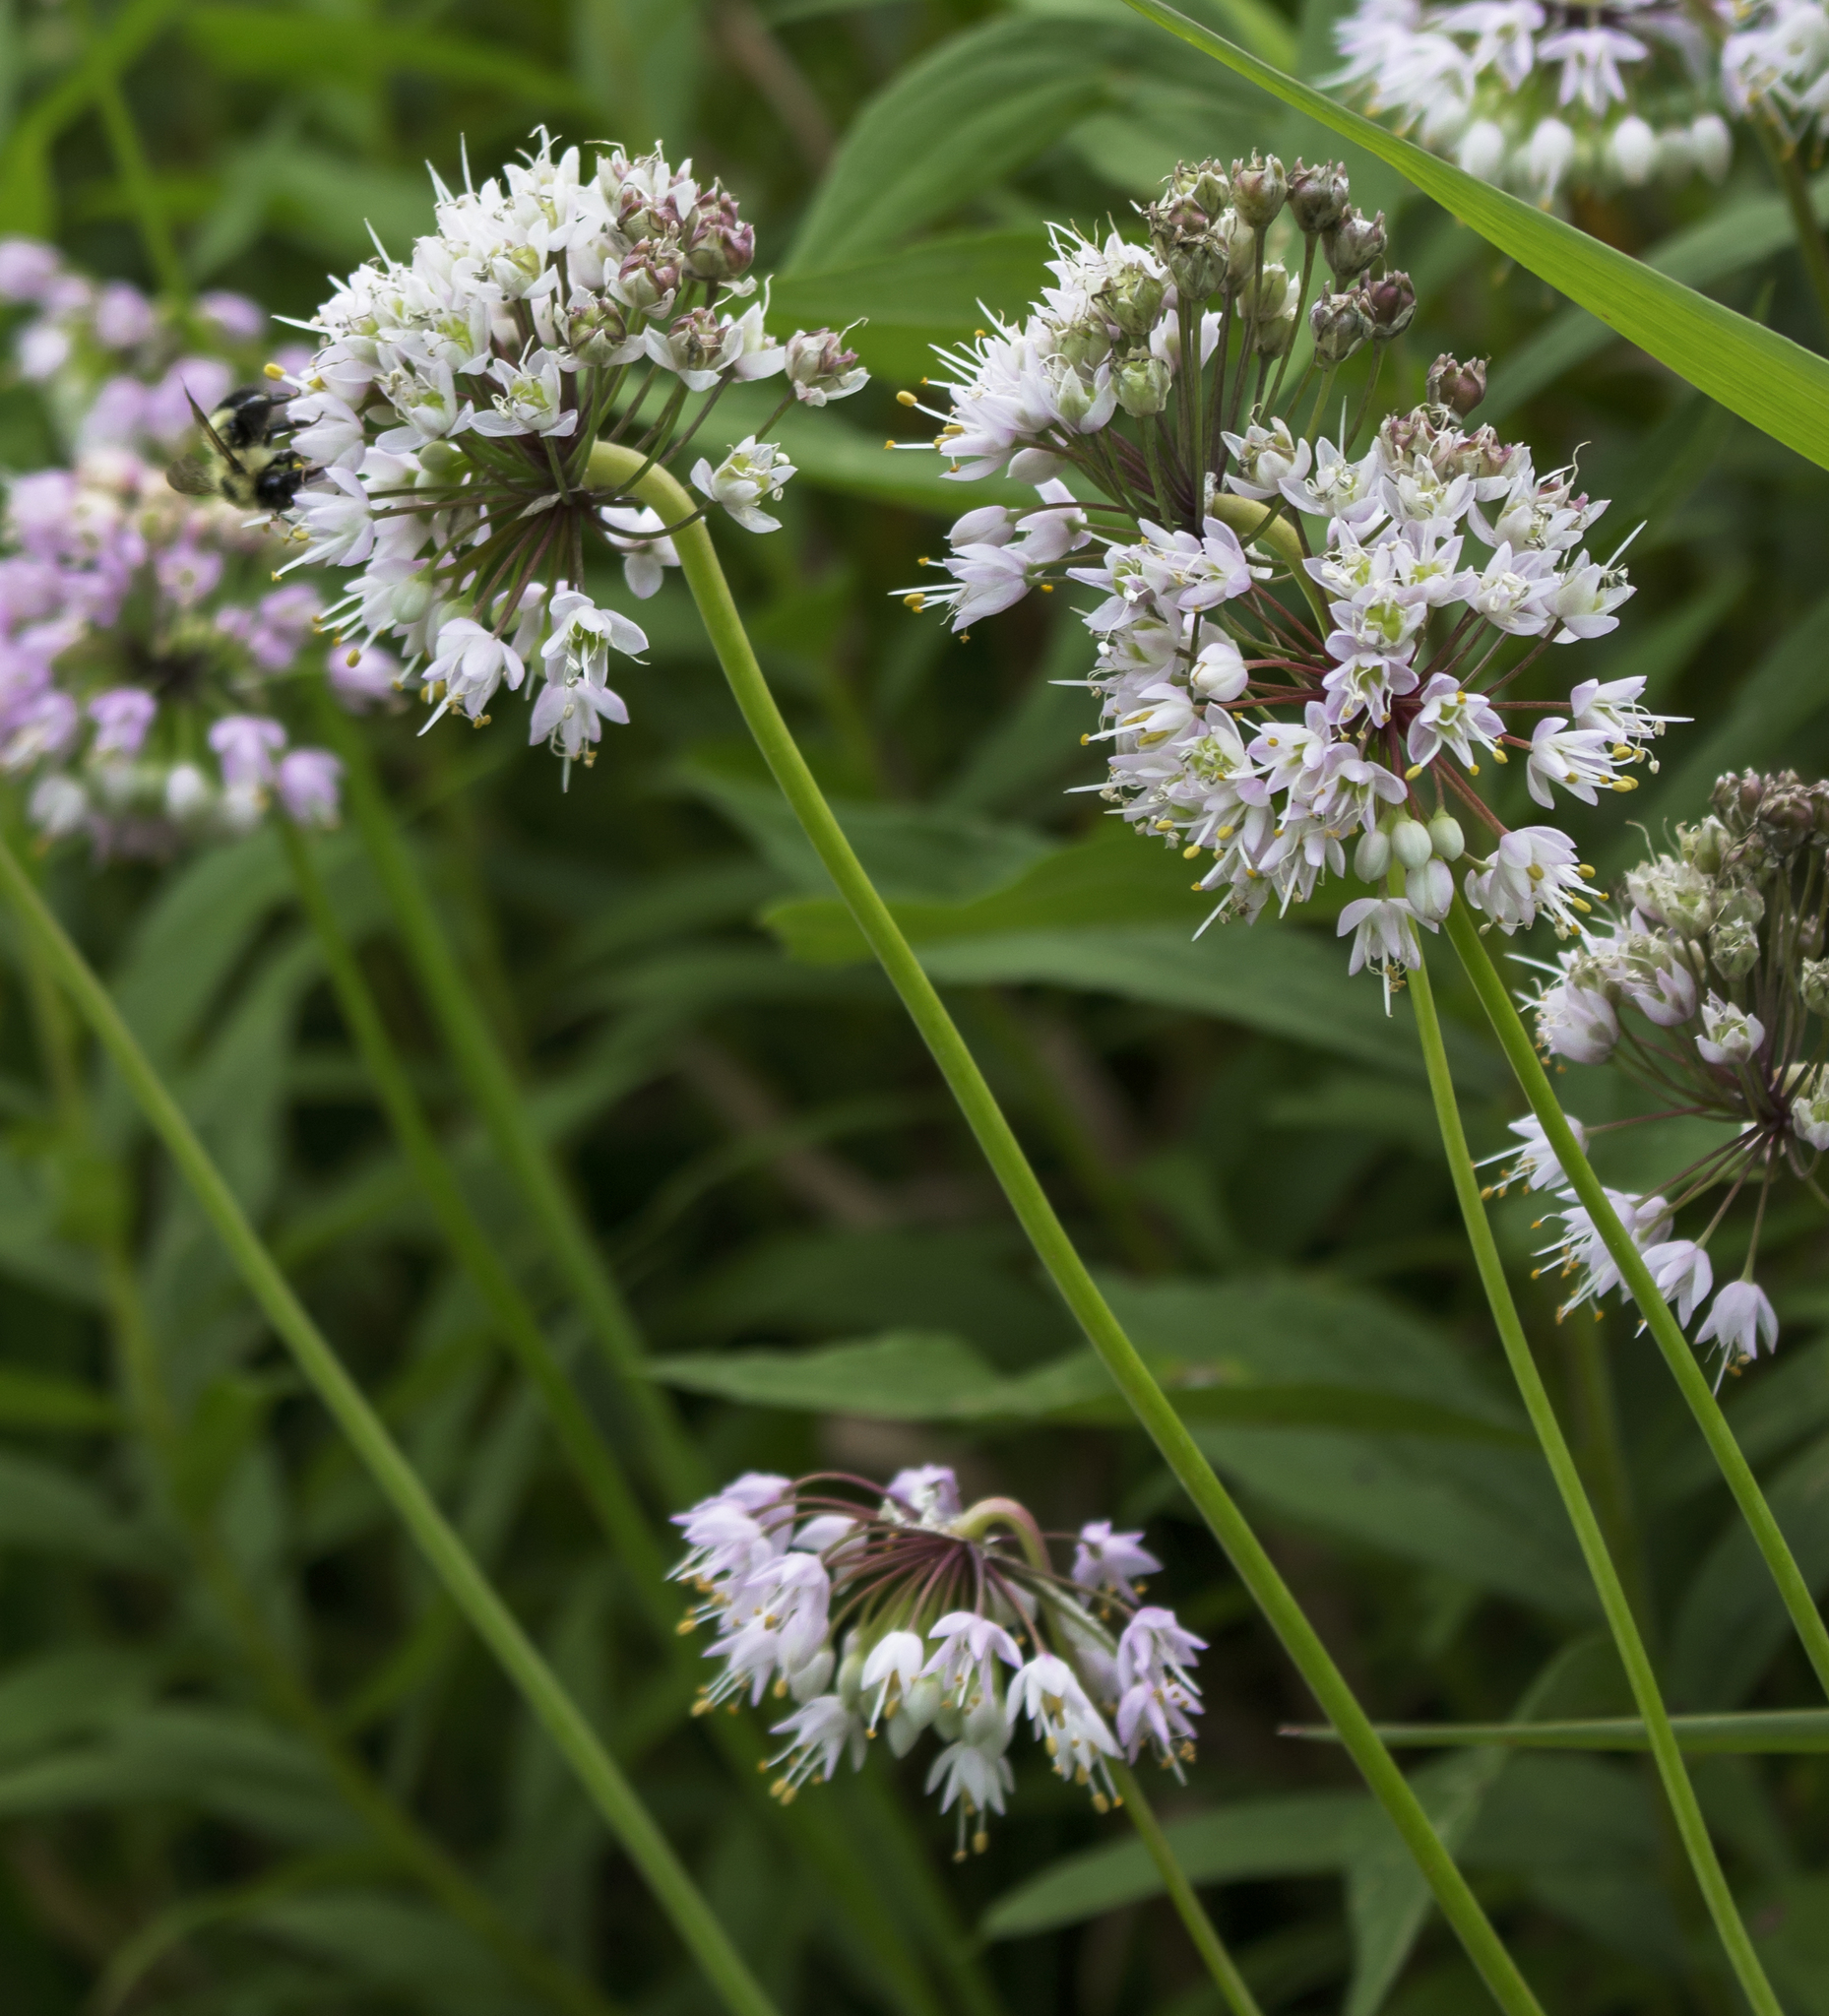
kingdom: Plantae
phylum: Tracheophyta
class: Liliopsida
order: Asparagales
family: Amaryllidaceae
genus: Allium
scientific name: Allium cernuum
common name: Nodding onion
